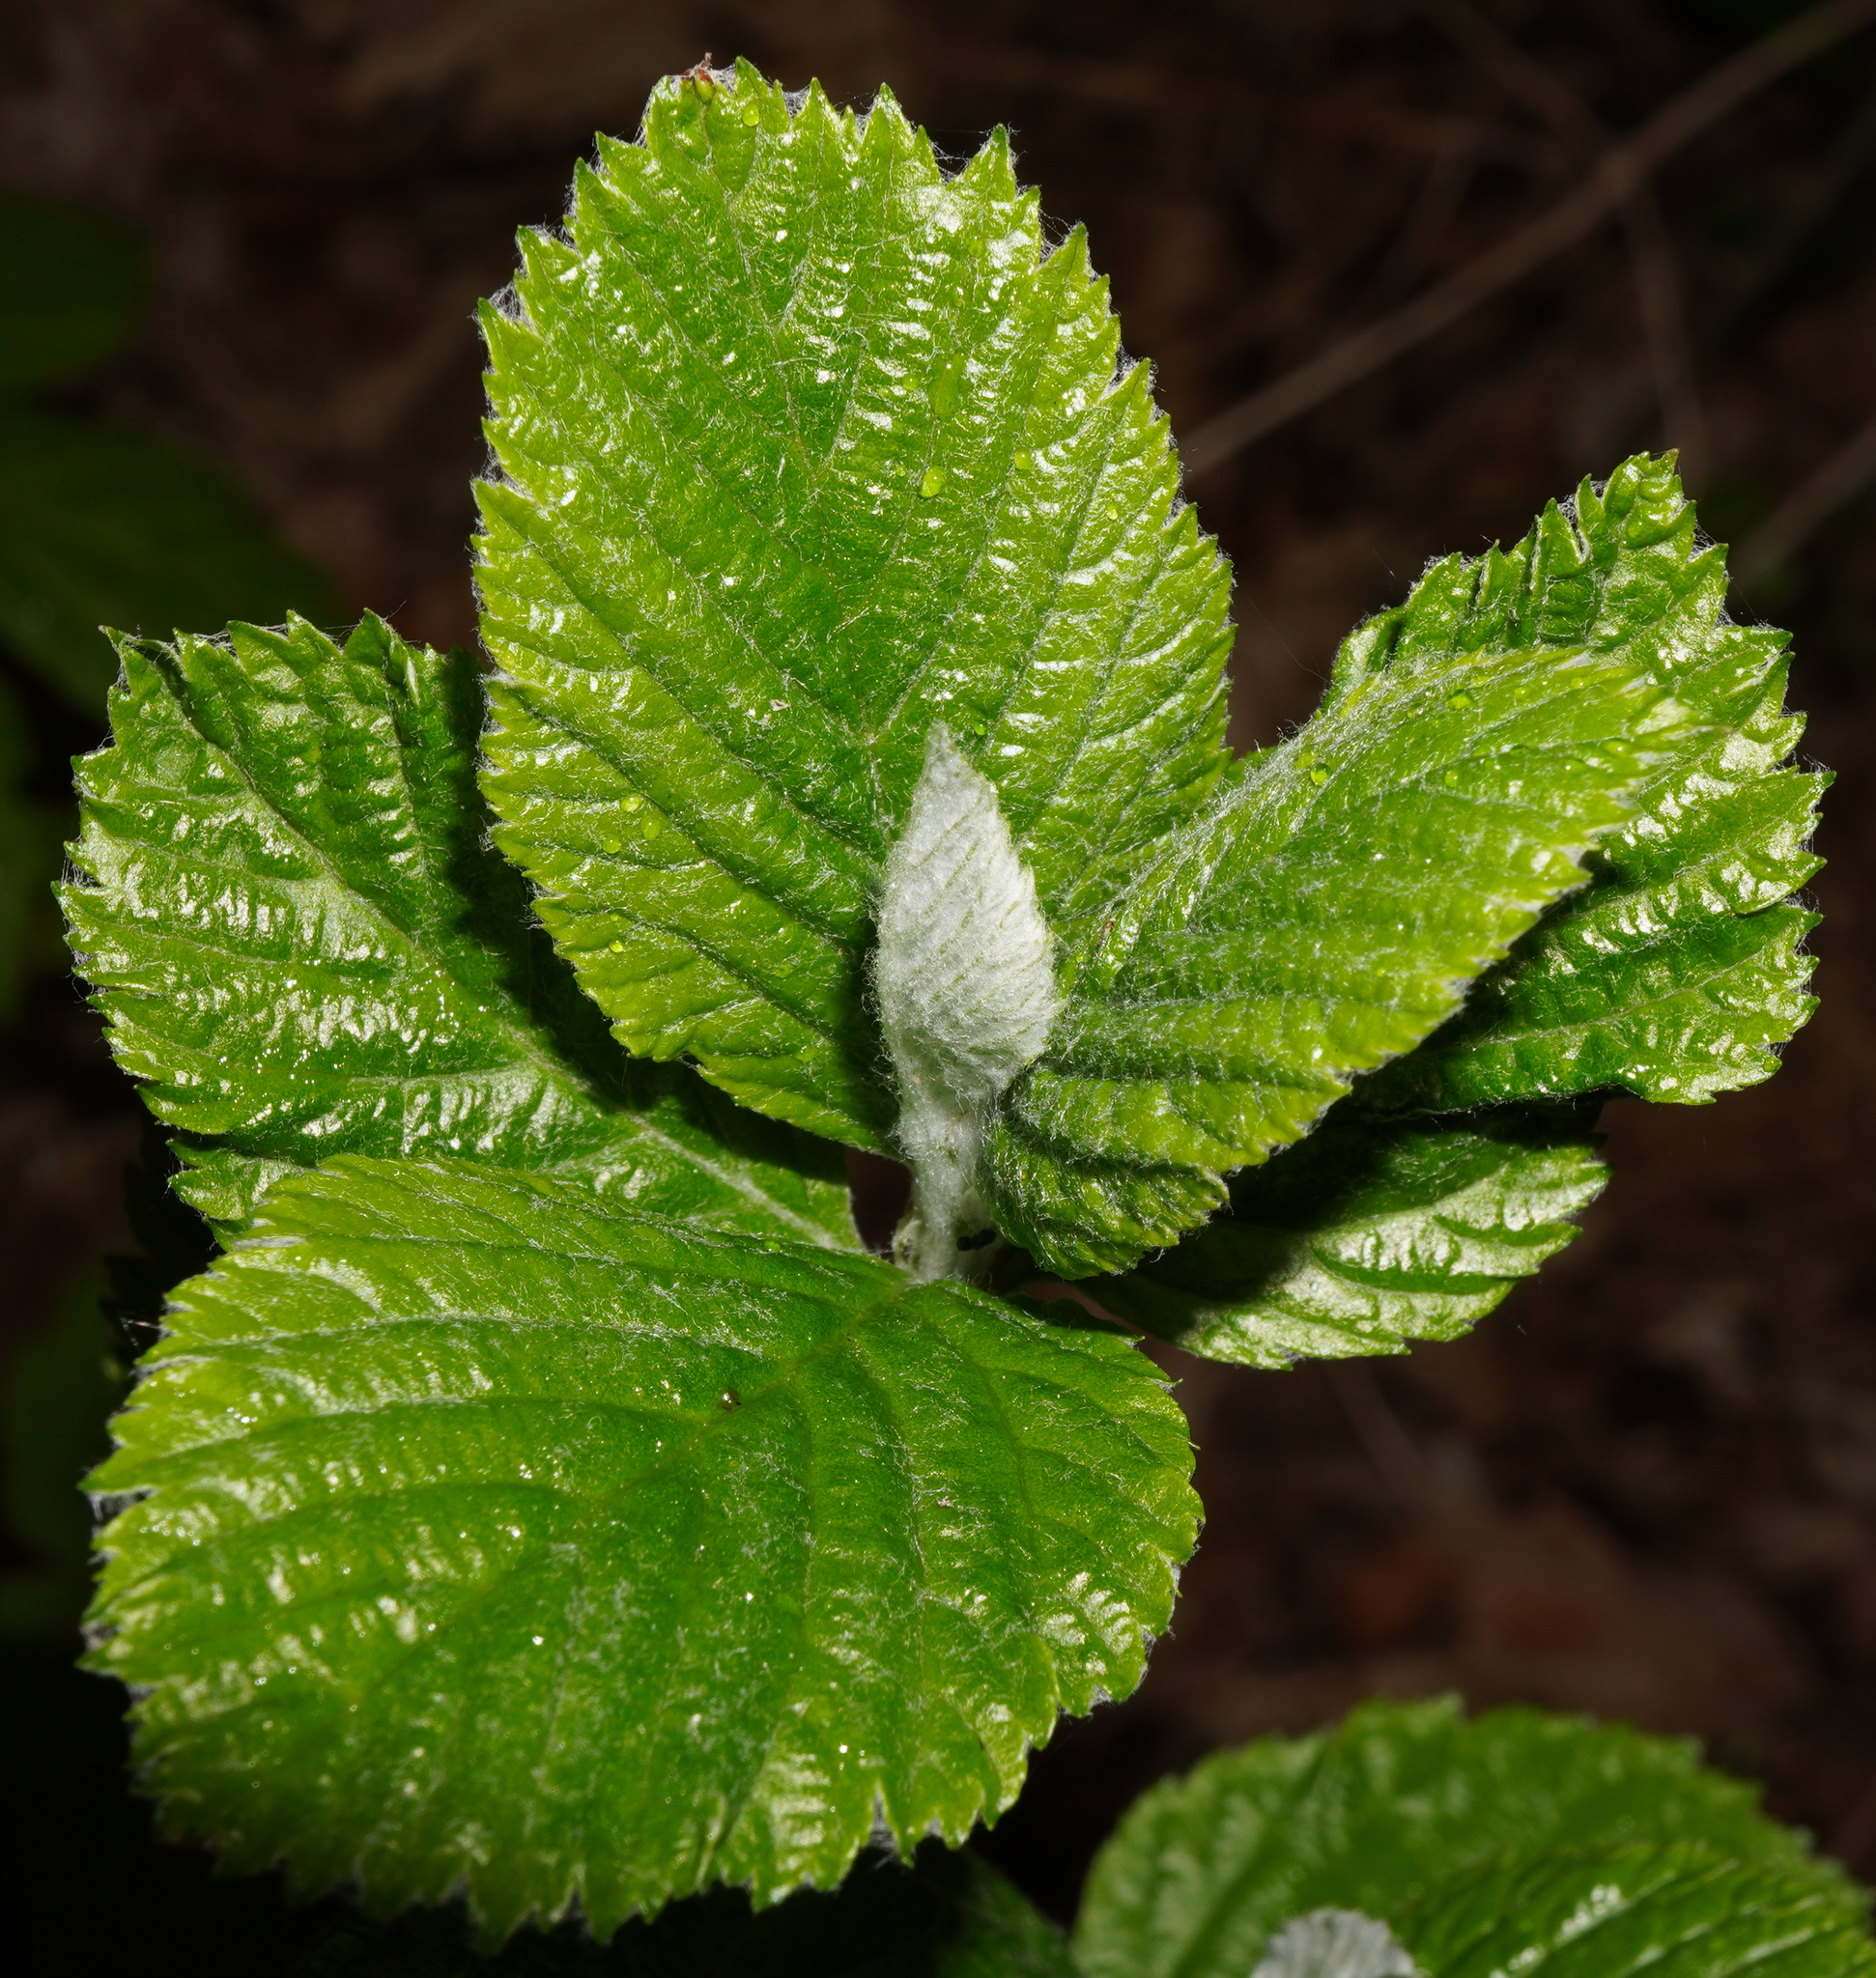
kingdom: Plantae
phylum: Tracheophyta
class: Magnoliopsida
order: Rosales
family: Rosaceae
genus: Aria
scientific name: Aria edulis
